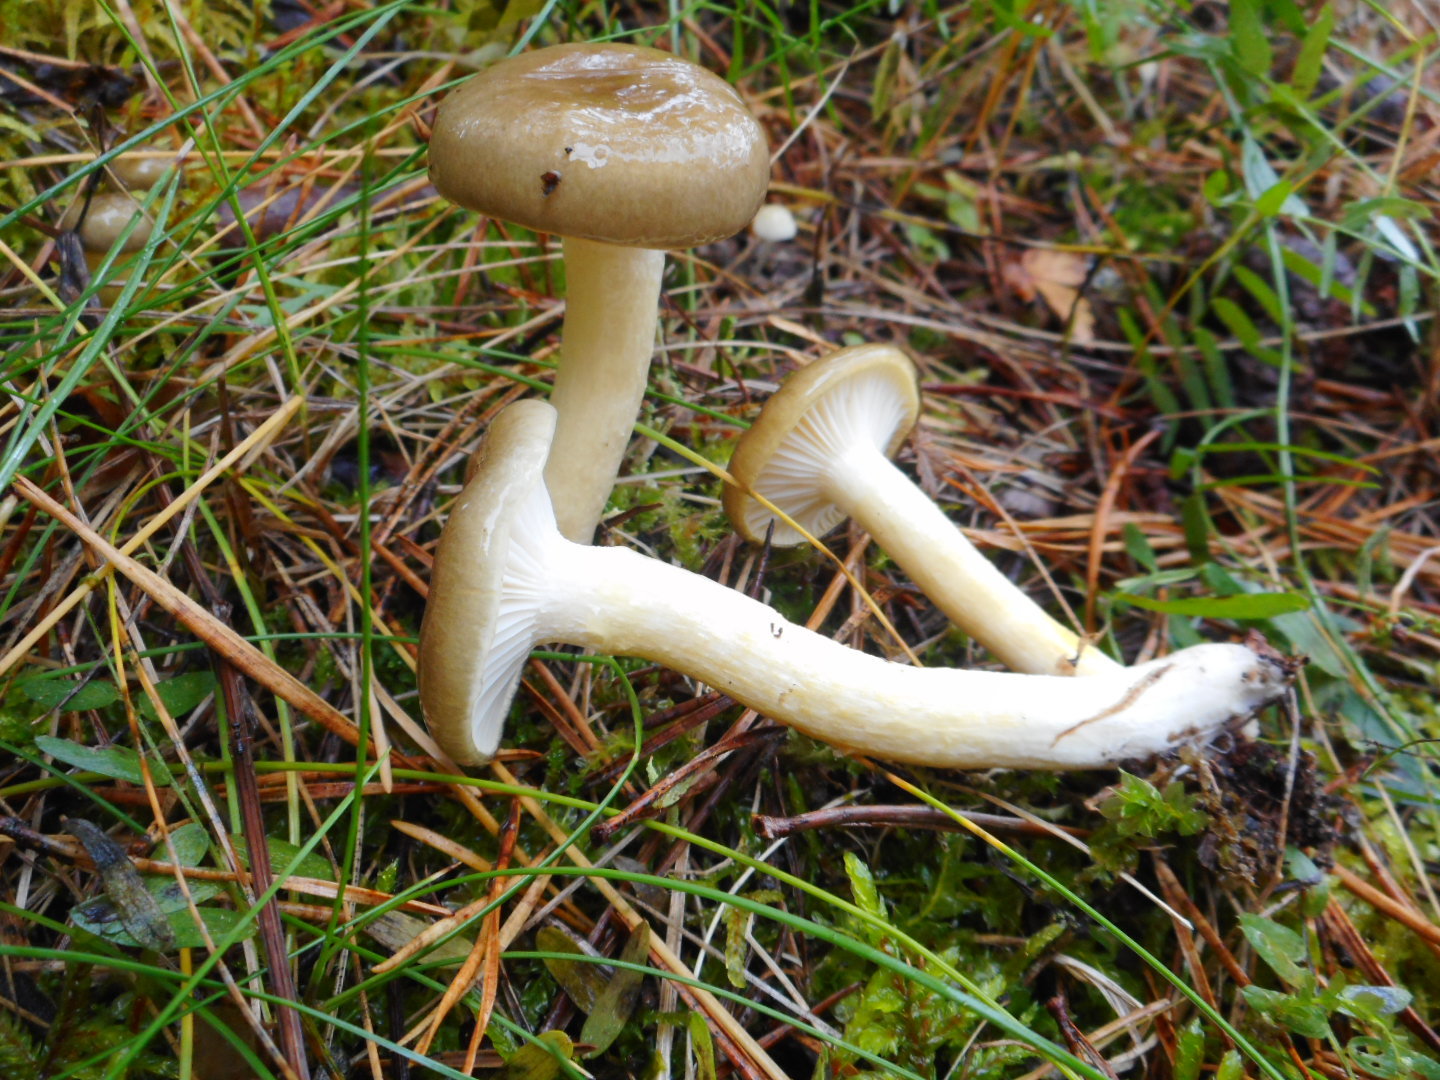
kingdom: Fungi
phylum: Basidiomycota
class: Agaricomycetes
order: Agaricales
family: Hygrophoraceae
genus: Hygrophorus
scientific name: Hygrophorus hypothejus
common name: Herald of winter
